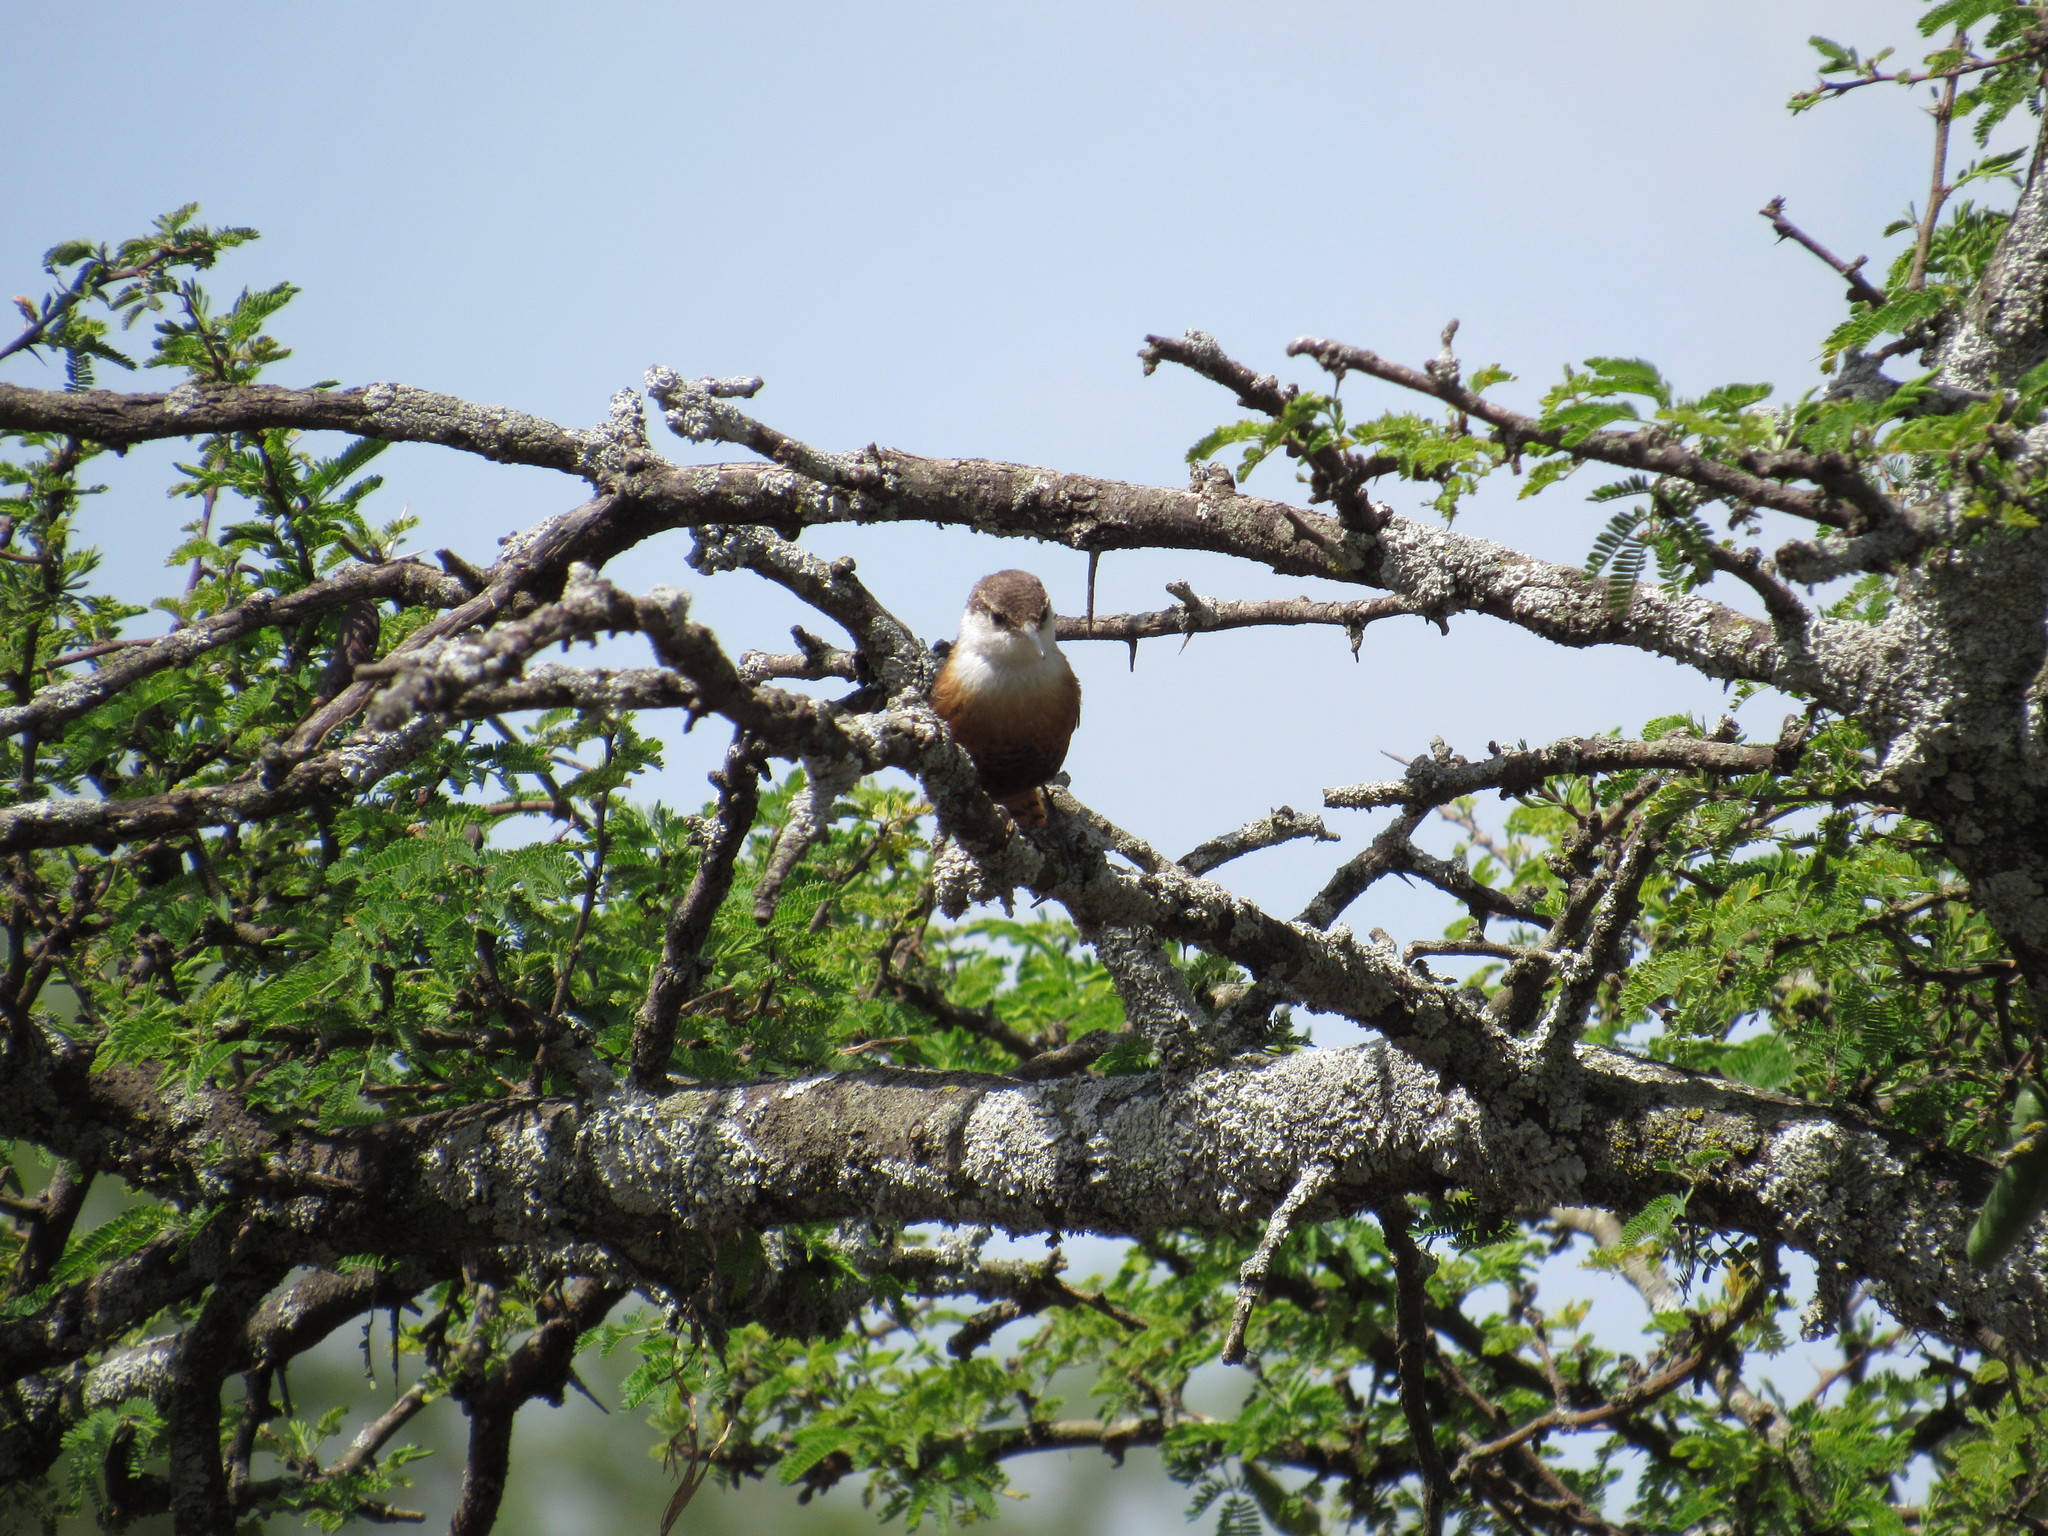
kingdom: Animalia
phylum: Chordata
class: Aves
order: Passeriformes
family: Troglodytidae
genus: Catherpes
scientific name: Catherpes mexicanus
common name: Canyon wren
